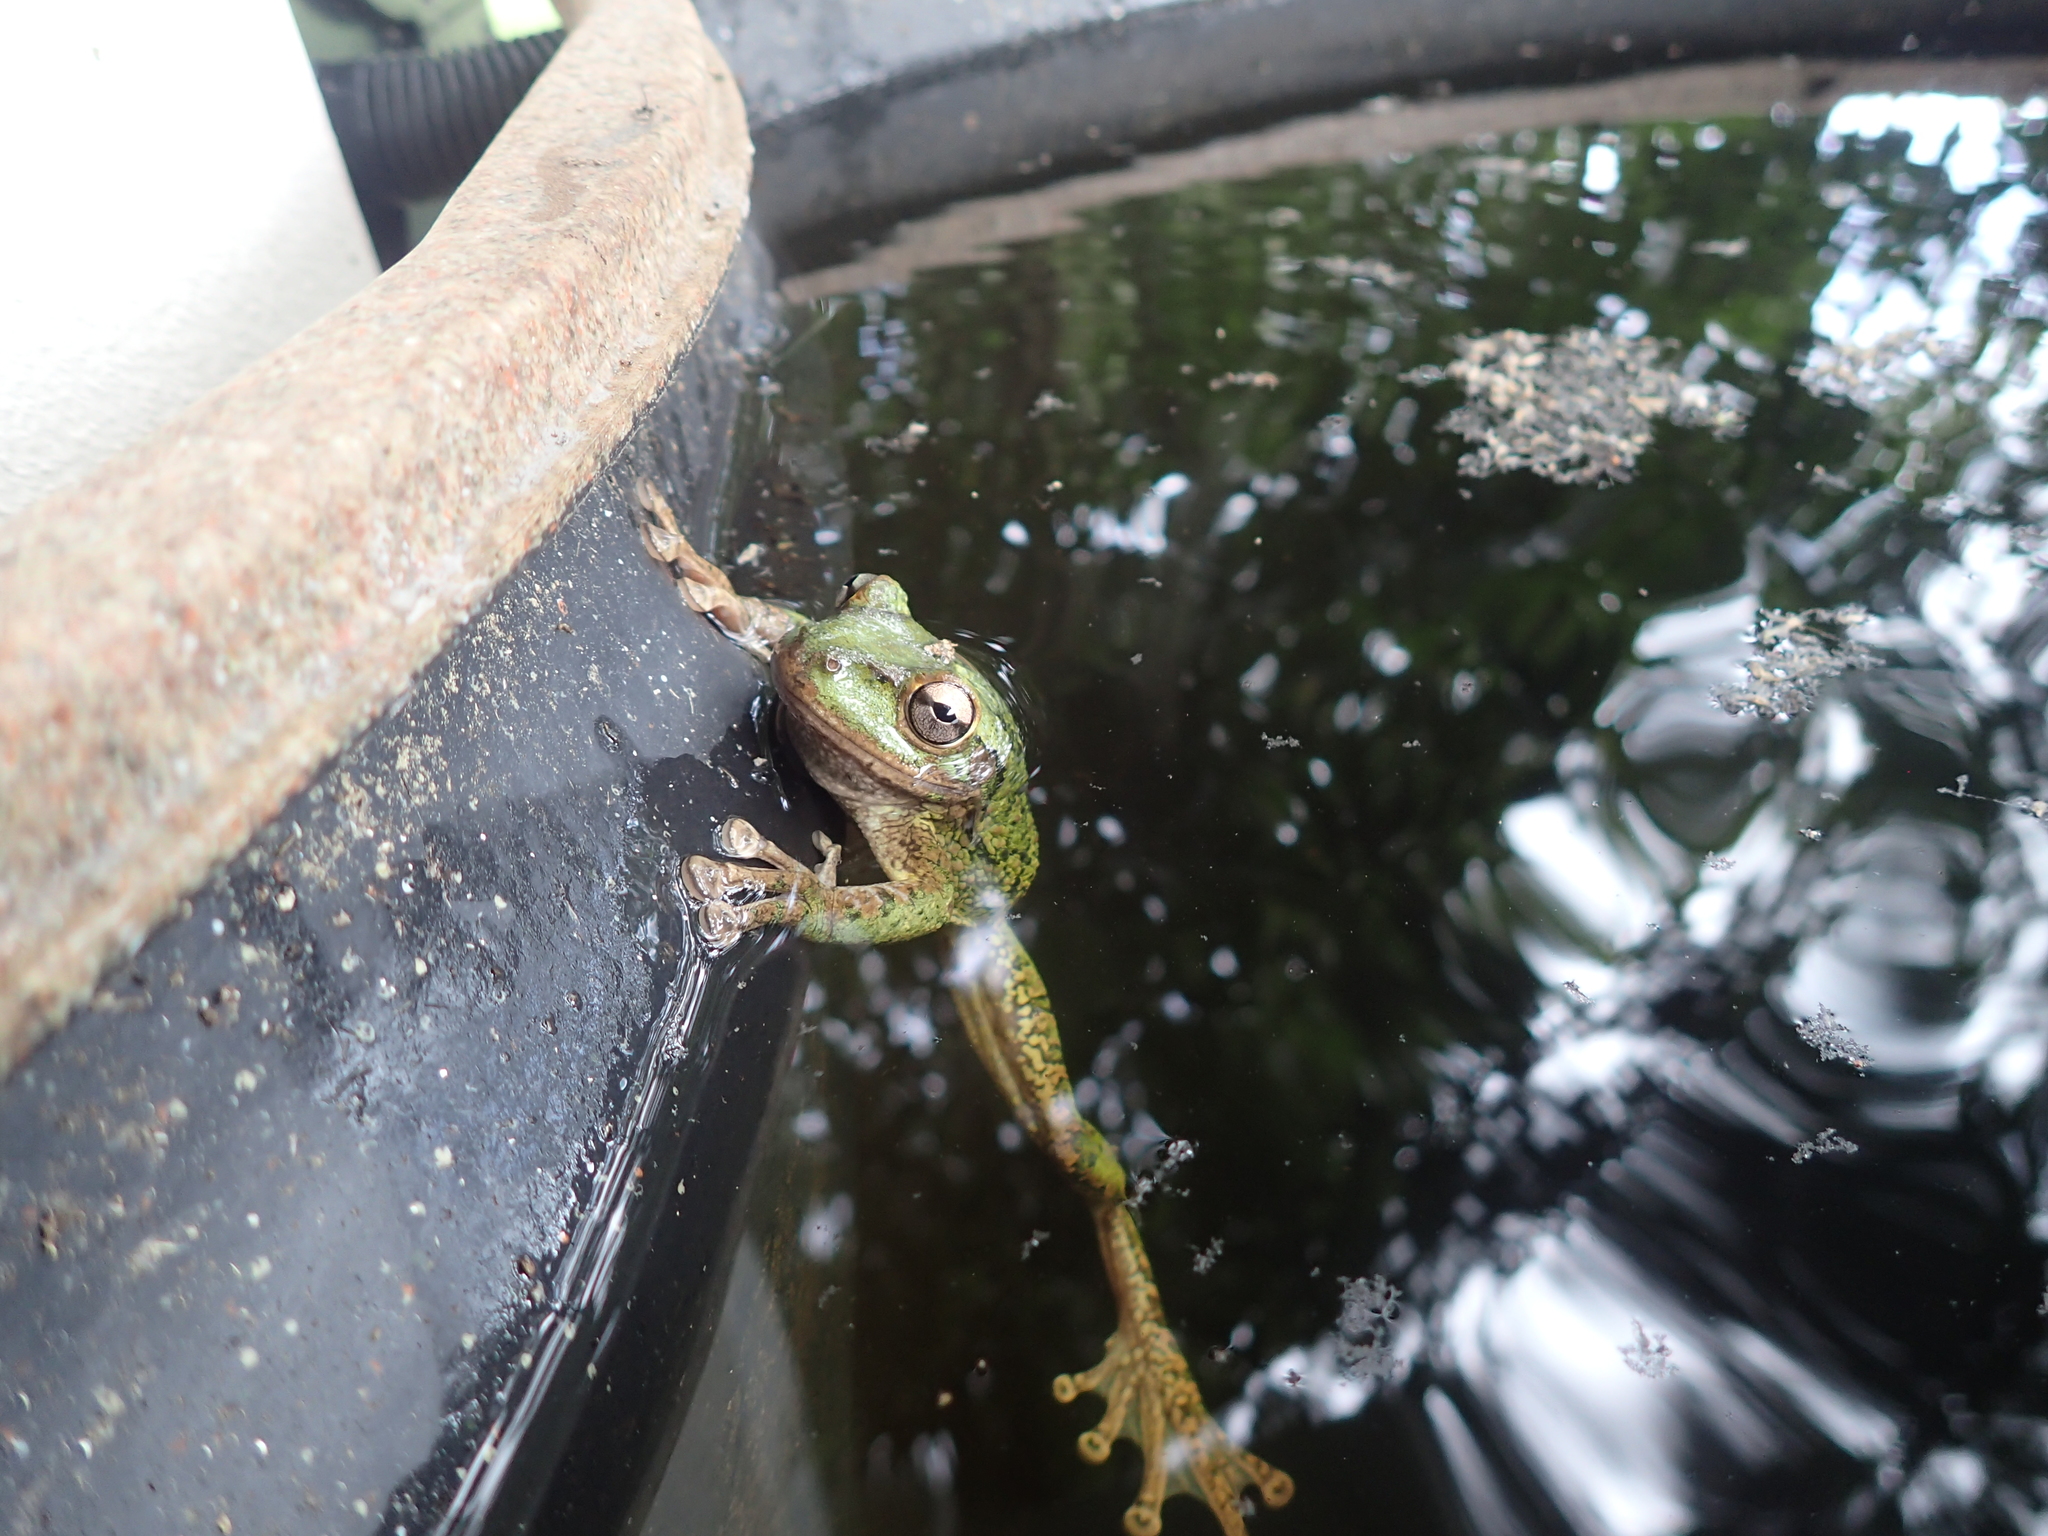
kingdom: Animalia
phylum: Chordata
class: Amphibia
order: Anura
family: Hylidae
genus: Osteopilus
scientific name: Osteopilus septentrionalis
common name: Cuban treefrog
